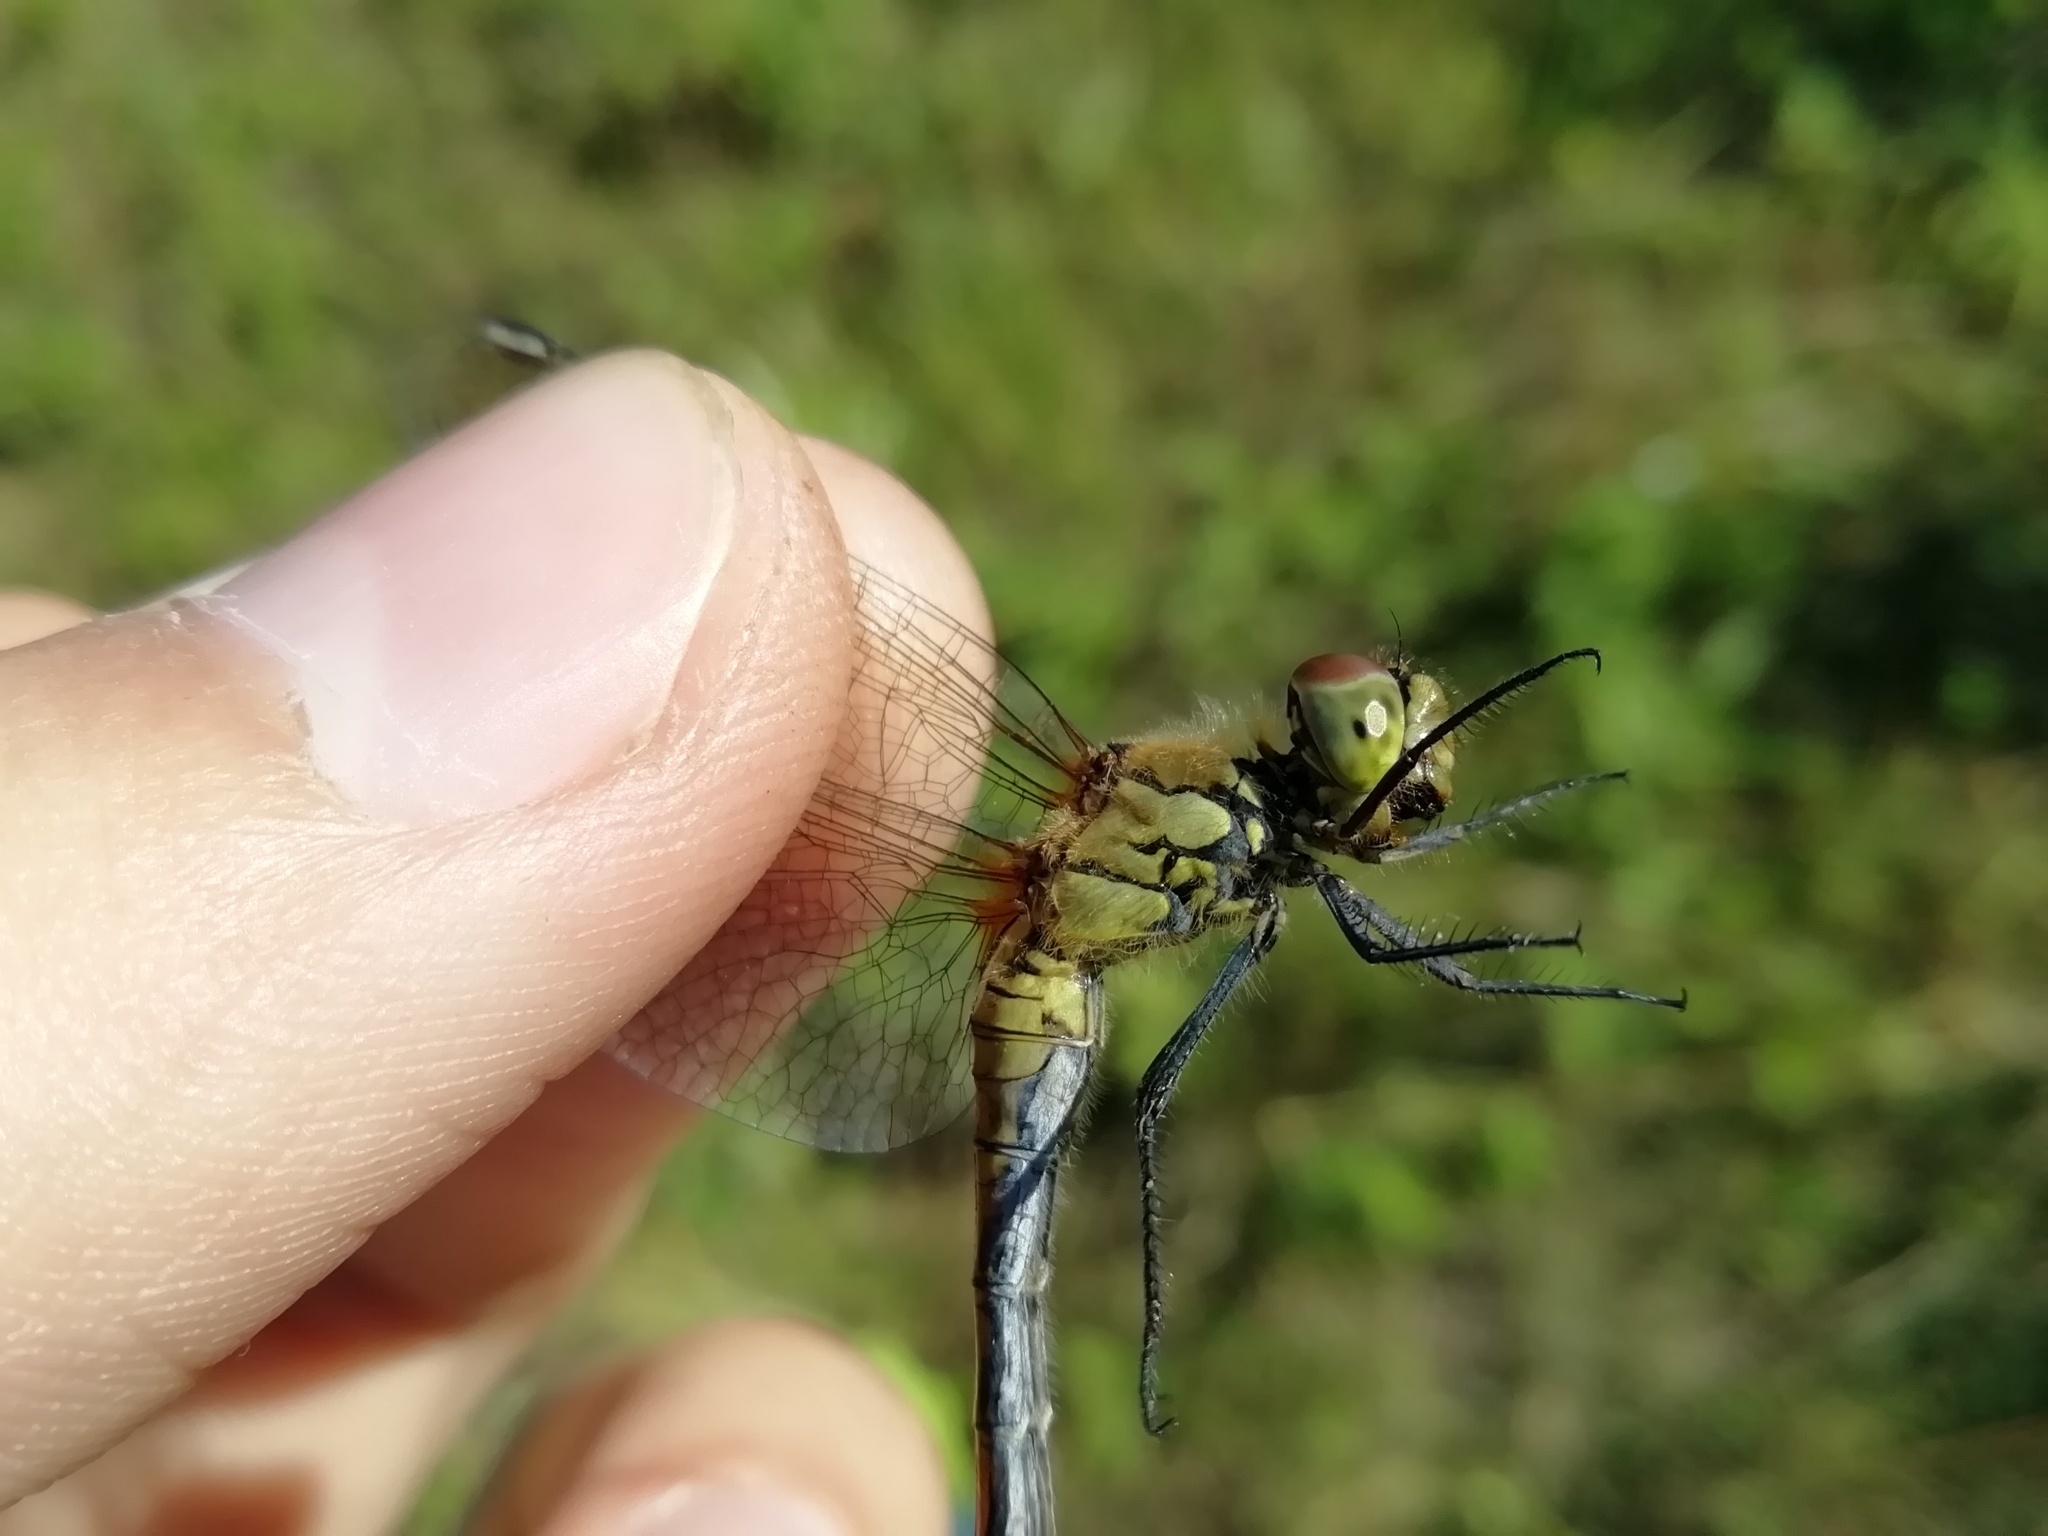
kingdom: Animalia
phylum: Arthropoda
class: Insecta
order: Odonata
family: Libellulidae
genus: Sympetrum
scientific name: Sympetrum sanguineum
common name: Ruddy darter
